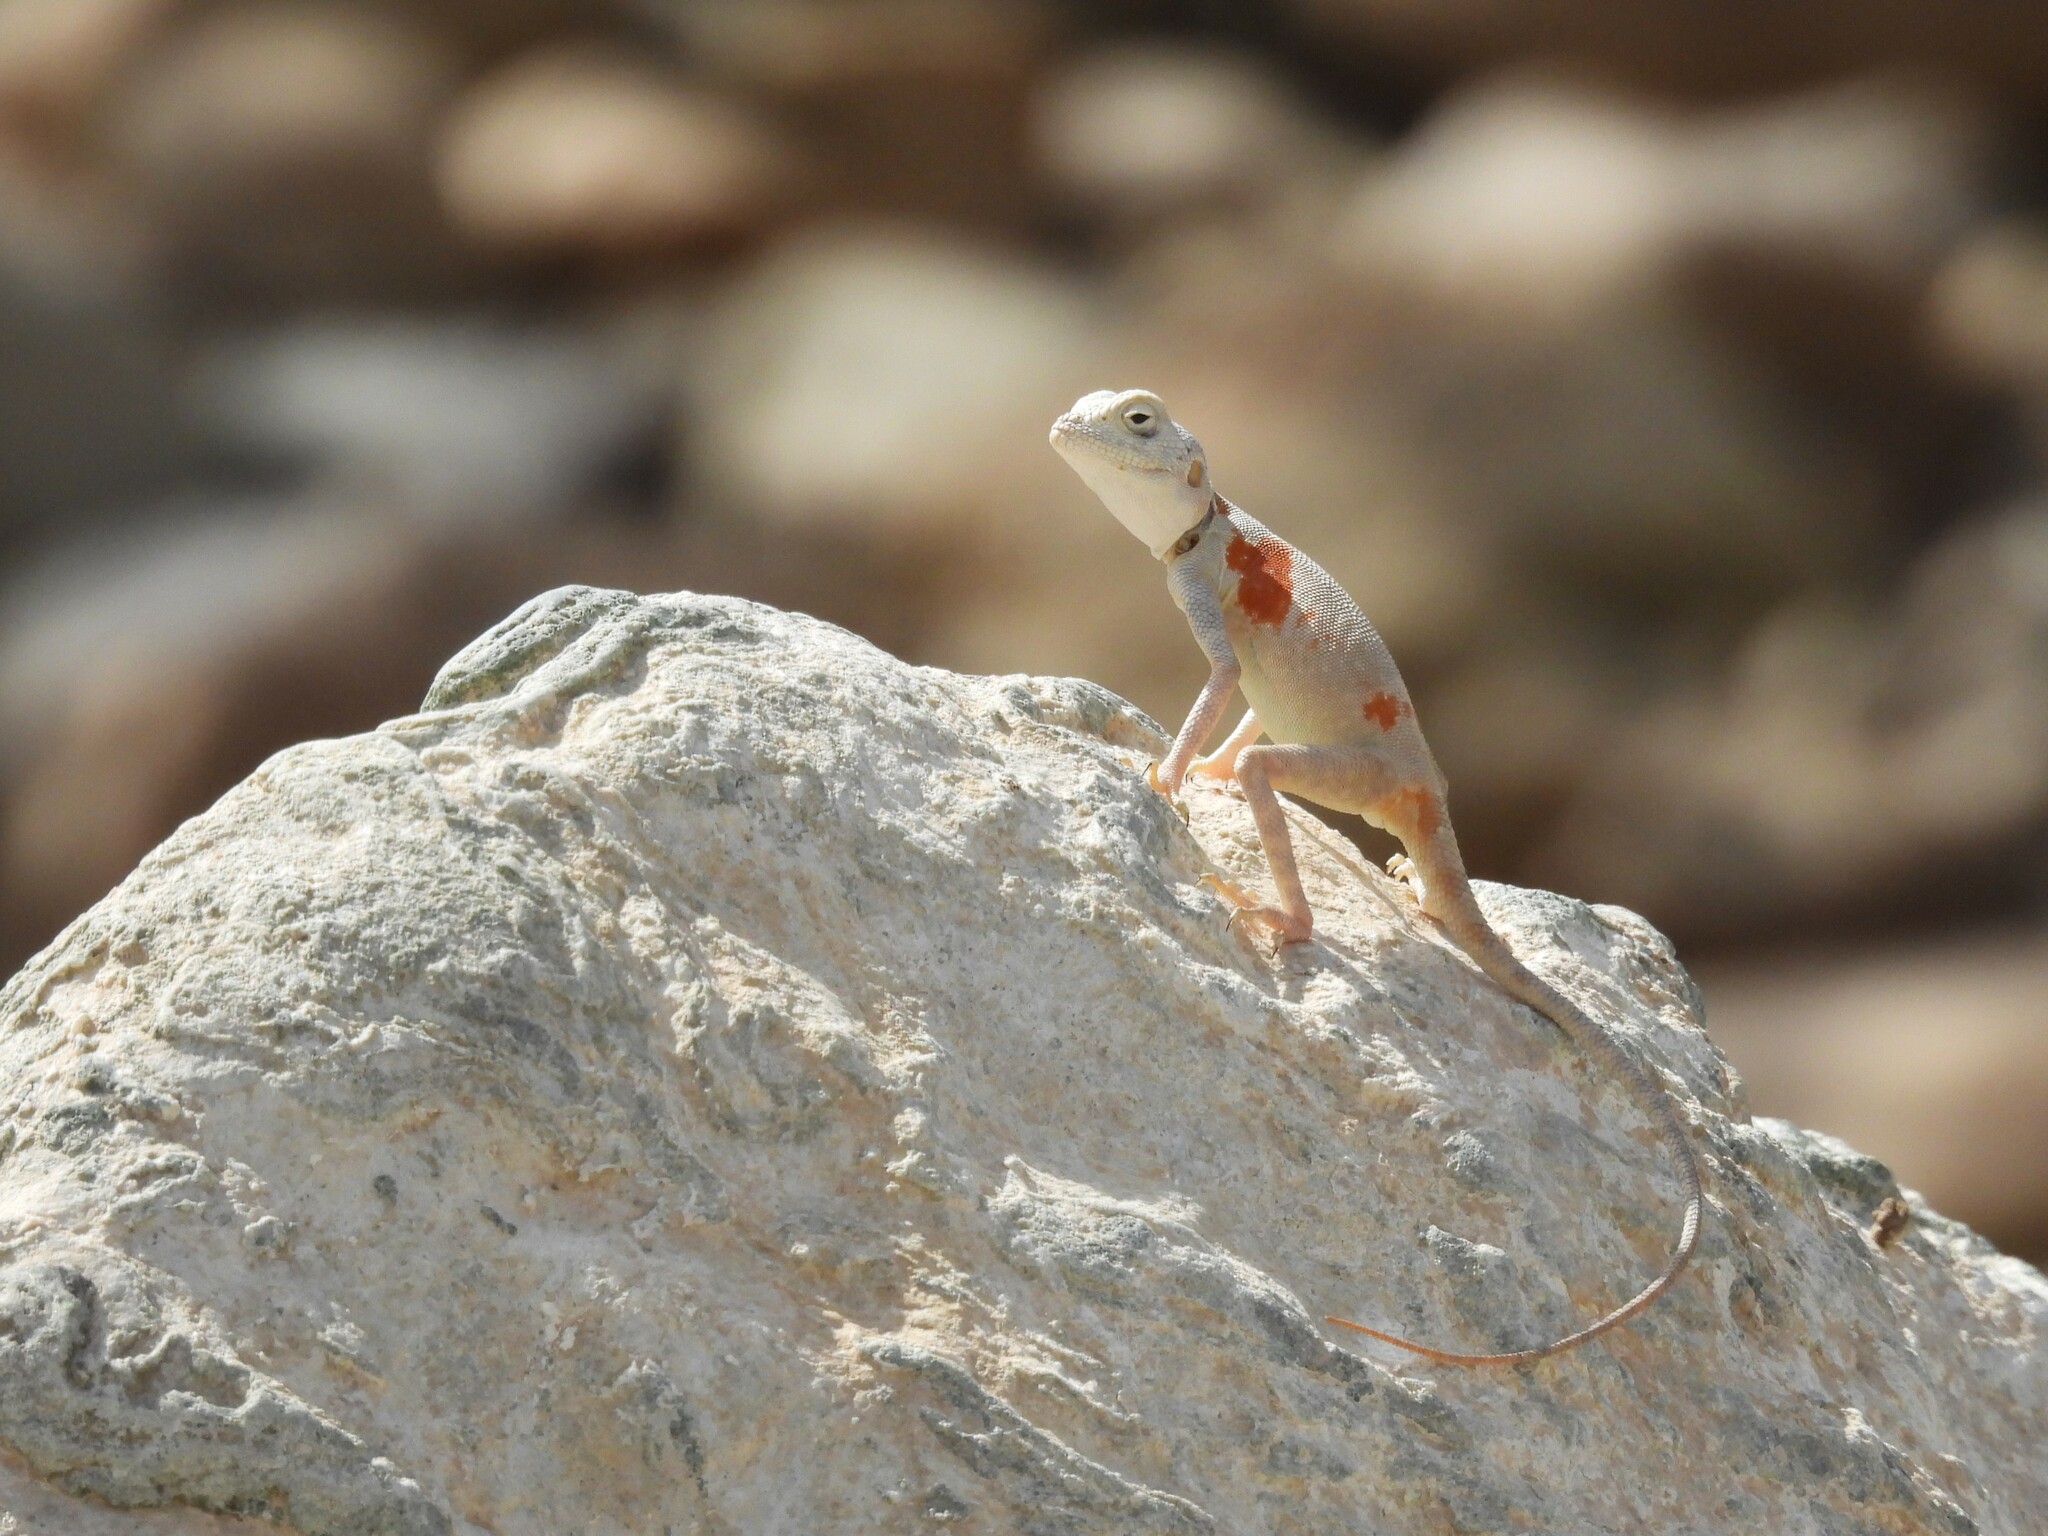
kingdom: Animalia
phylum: Chordata
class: Squamata
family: Agamidae
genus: Pseudotrapelus
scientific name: Pseudotrapelus jensvindumi
